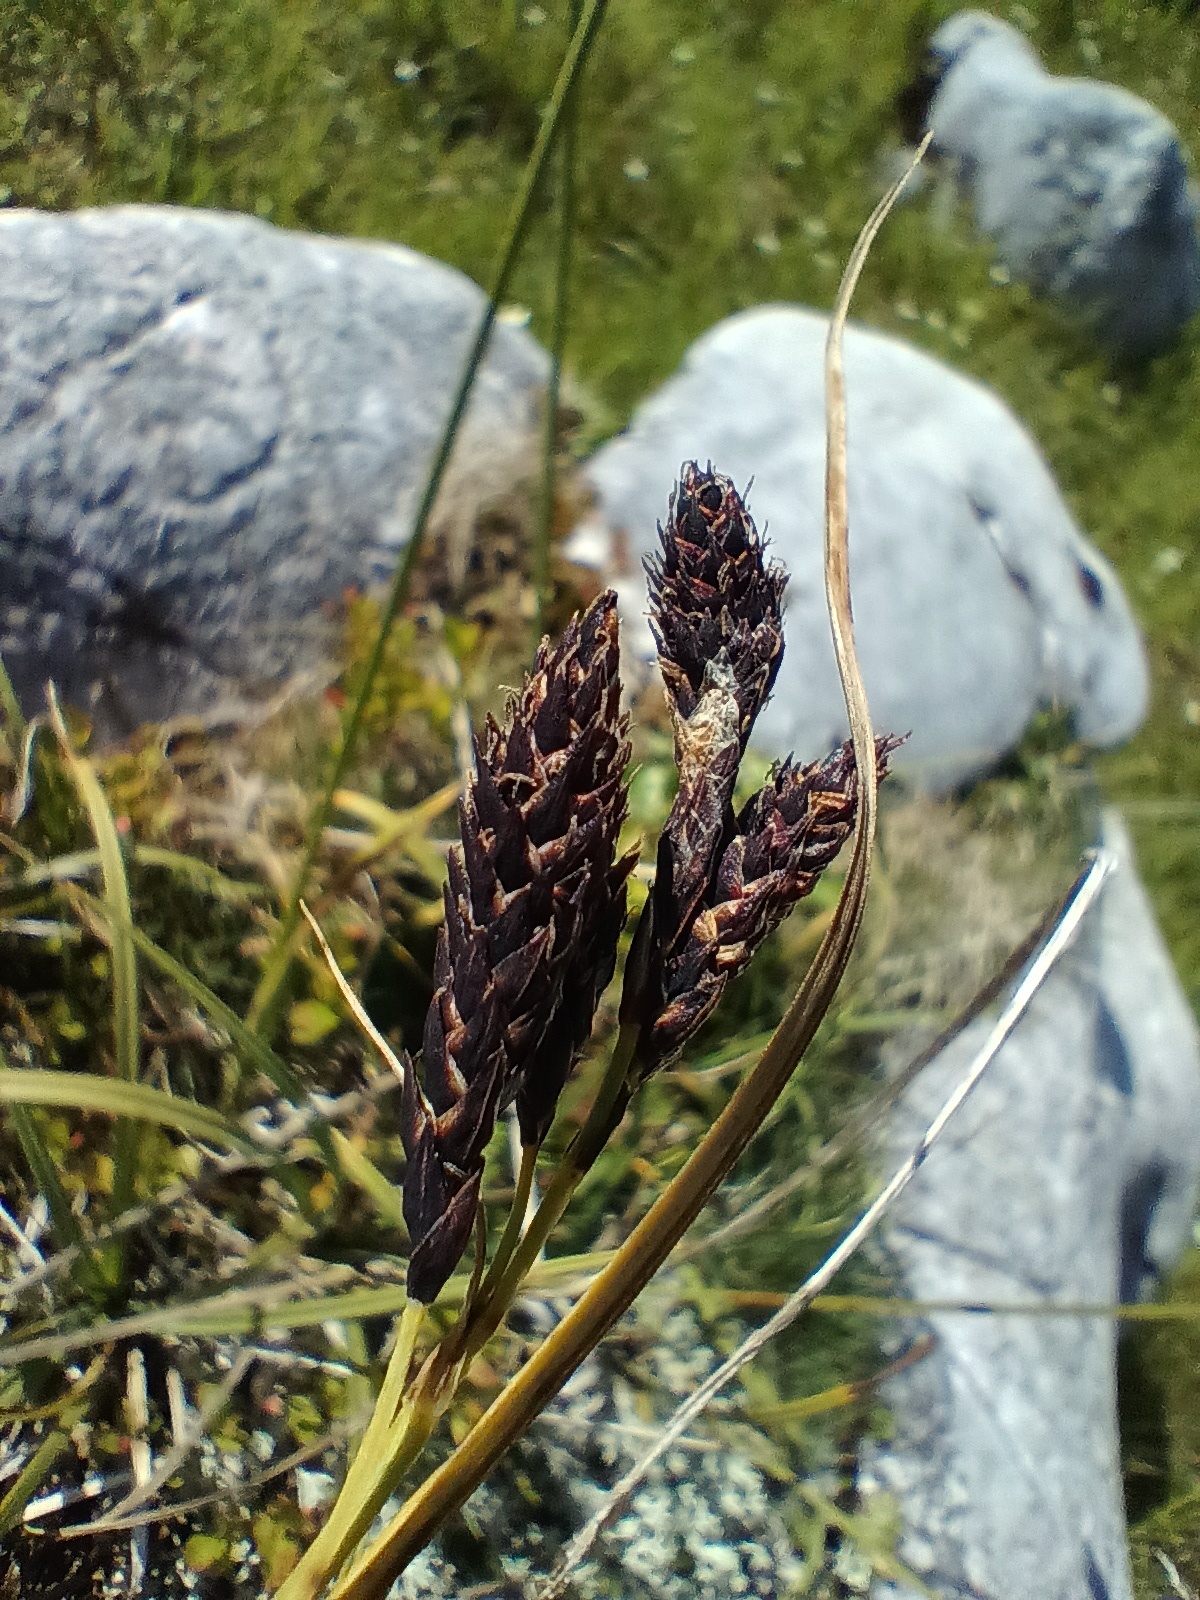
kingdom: Plantae
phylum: Tracheophyta
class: Liliopsida
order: Poales
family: Cyperaceae
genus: Carex
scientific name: Carex atrata
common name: Black alpine sedge
